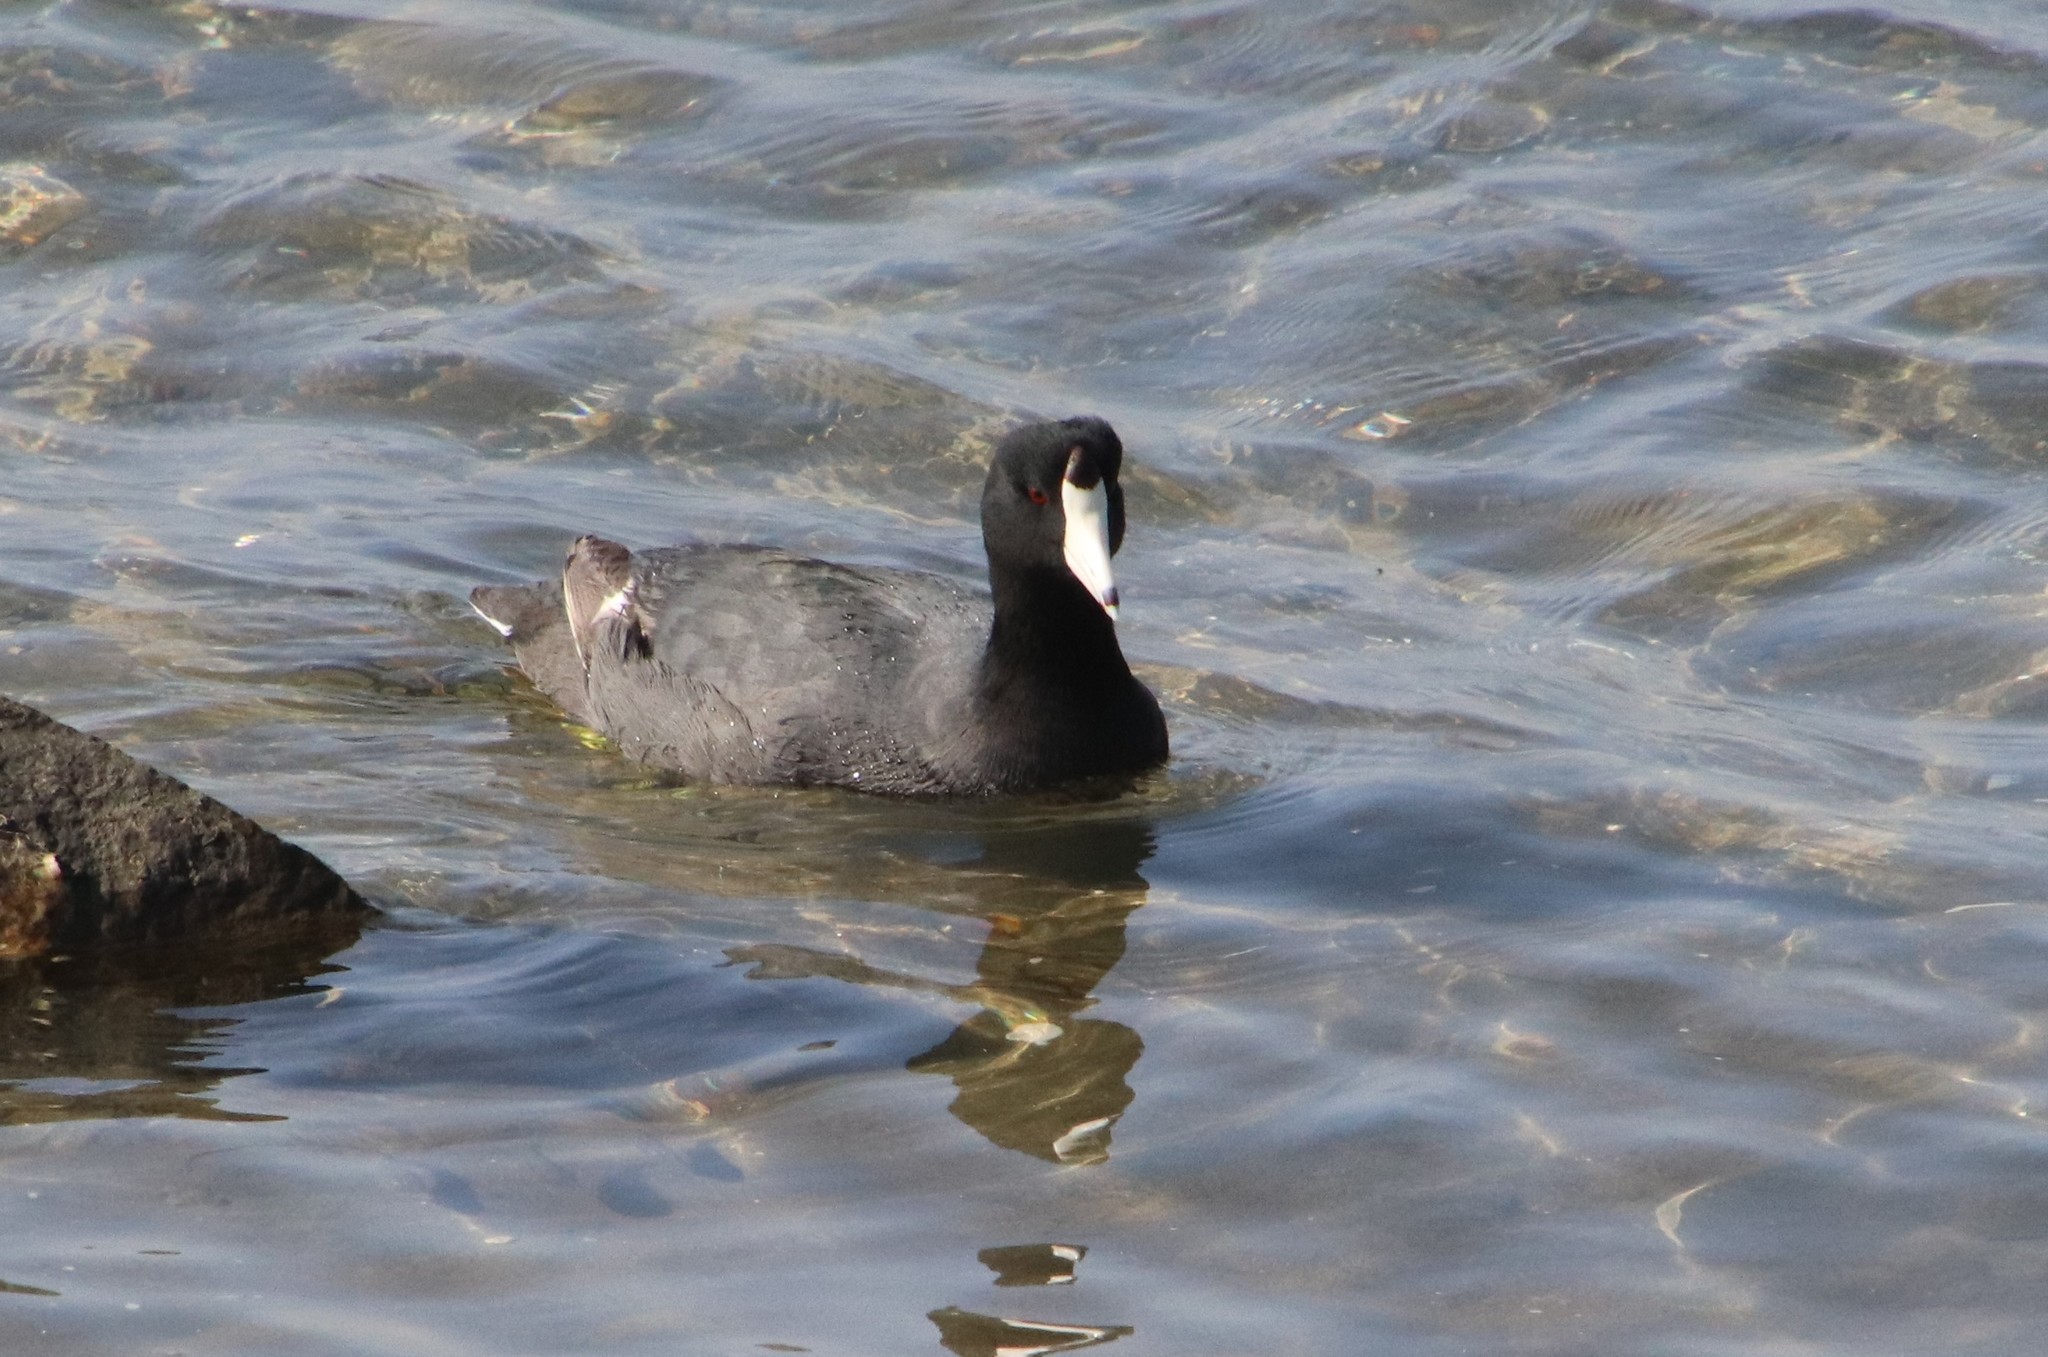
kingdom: Animalia
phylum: Chordata
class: Aves
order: Gruiformes
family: Rallidae
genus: Fulica
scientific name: Fulica americana
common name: American coot
